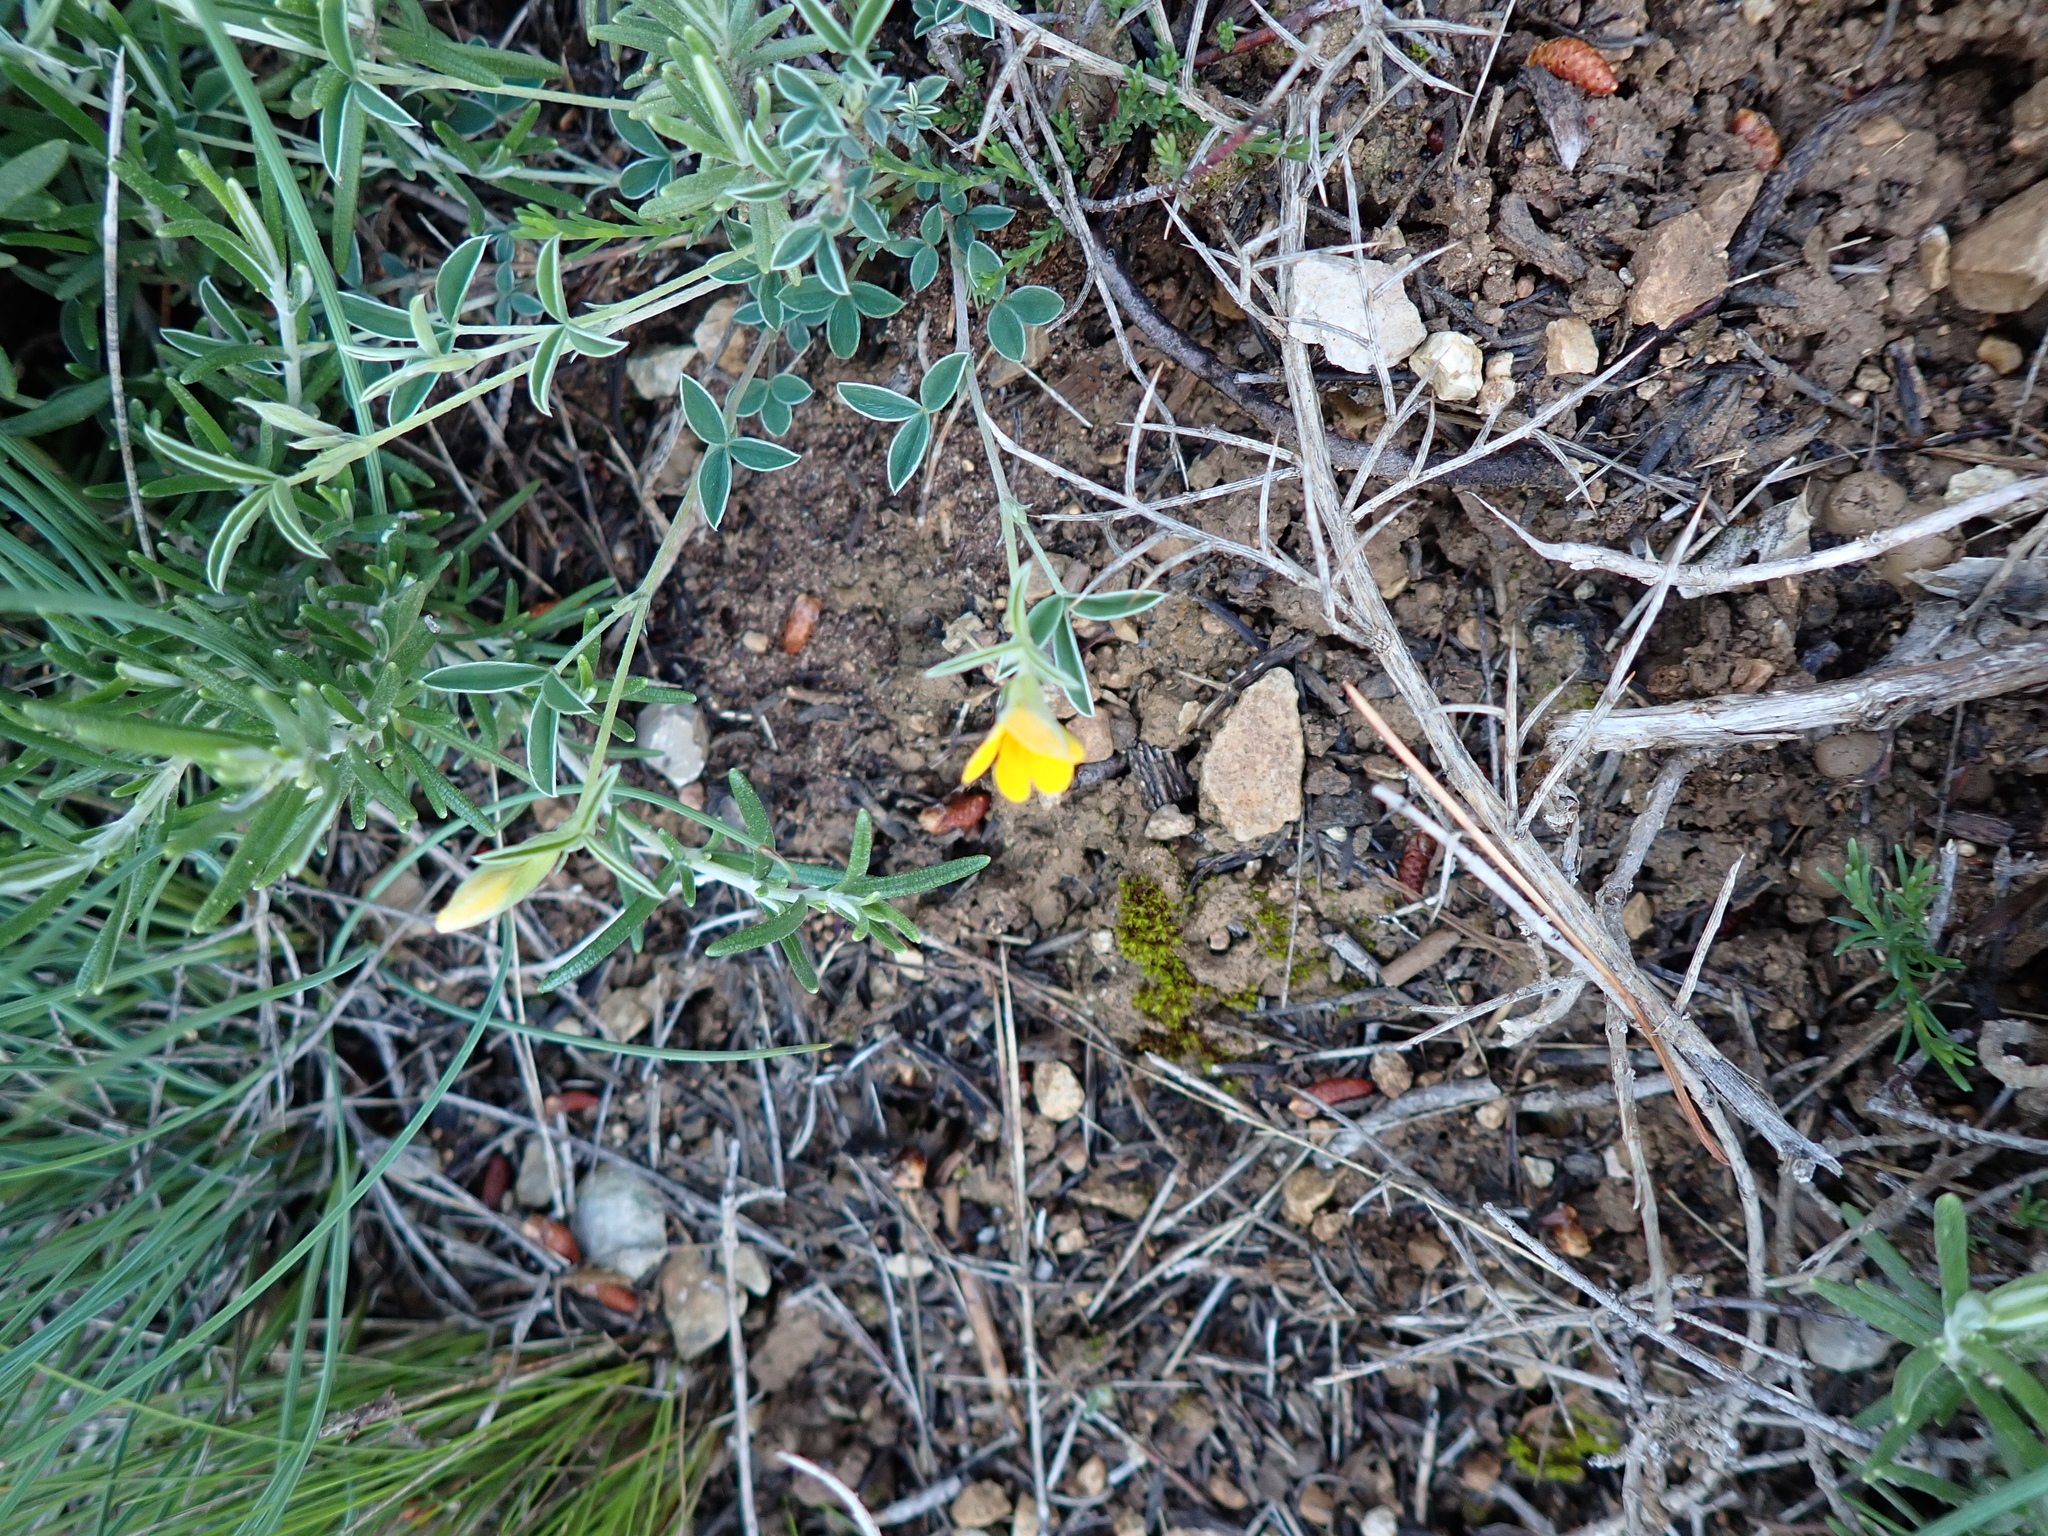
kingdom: Plantae
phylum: Tracheophyta
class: Magnoliopsida
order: Fabales
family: Fabaceae
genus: Argyrolobium
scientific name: Argyrolobium zanonii
